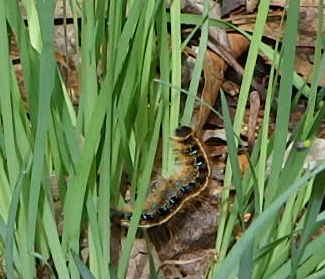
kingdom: Animalia
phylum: Arthropoda
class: Insecta
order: Lepidoptera
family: Lasiocampidae
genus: Malacosoma
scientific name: Malacosoma americana
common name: Eastern tent caterpillar moth
